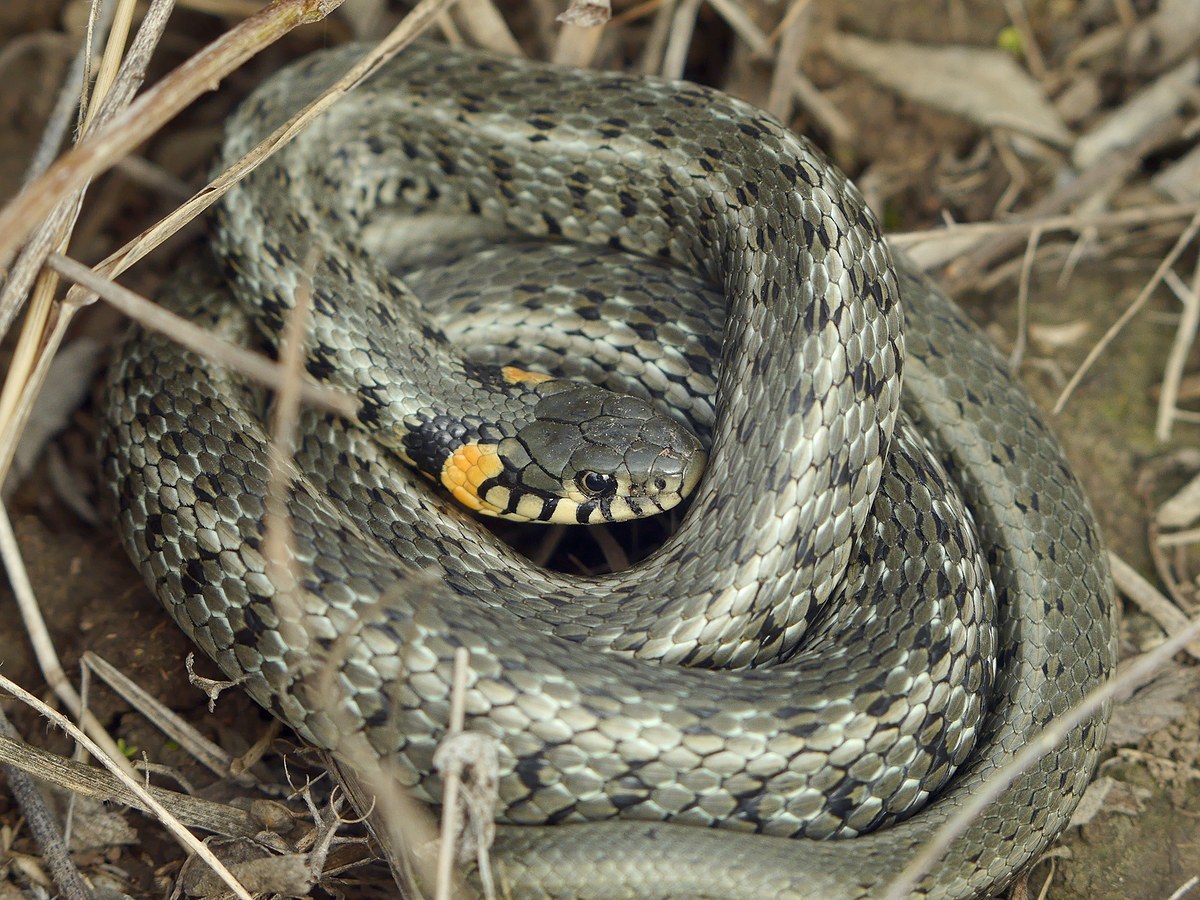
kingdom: Animalia
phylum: Chordata
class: Squamata
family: Colubridae
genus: Natrix
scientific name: Natrix natrix
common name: Grass snake
